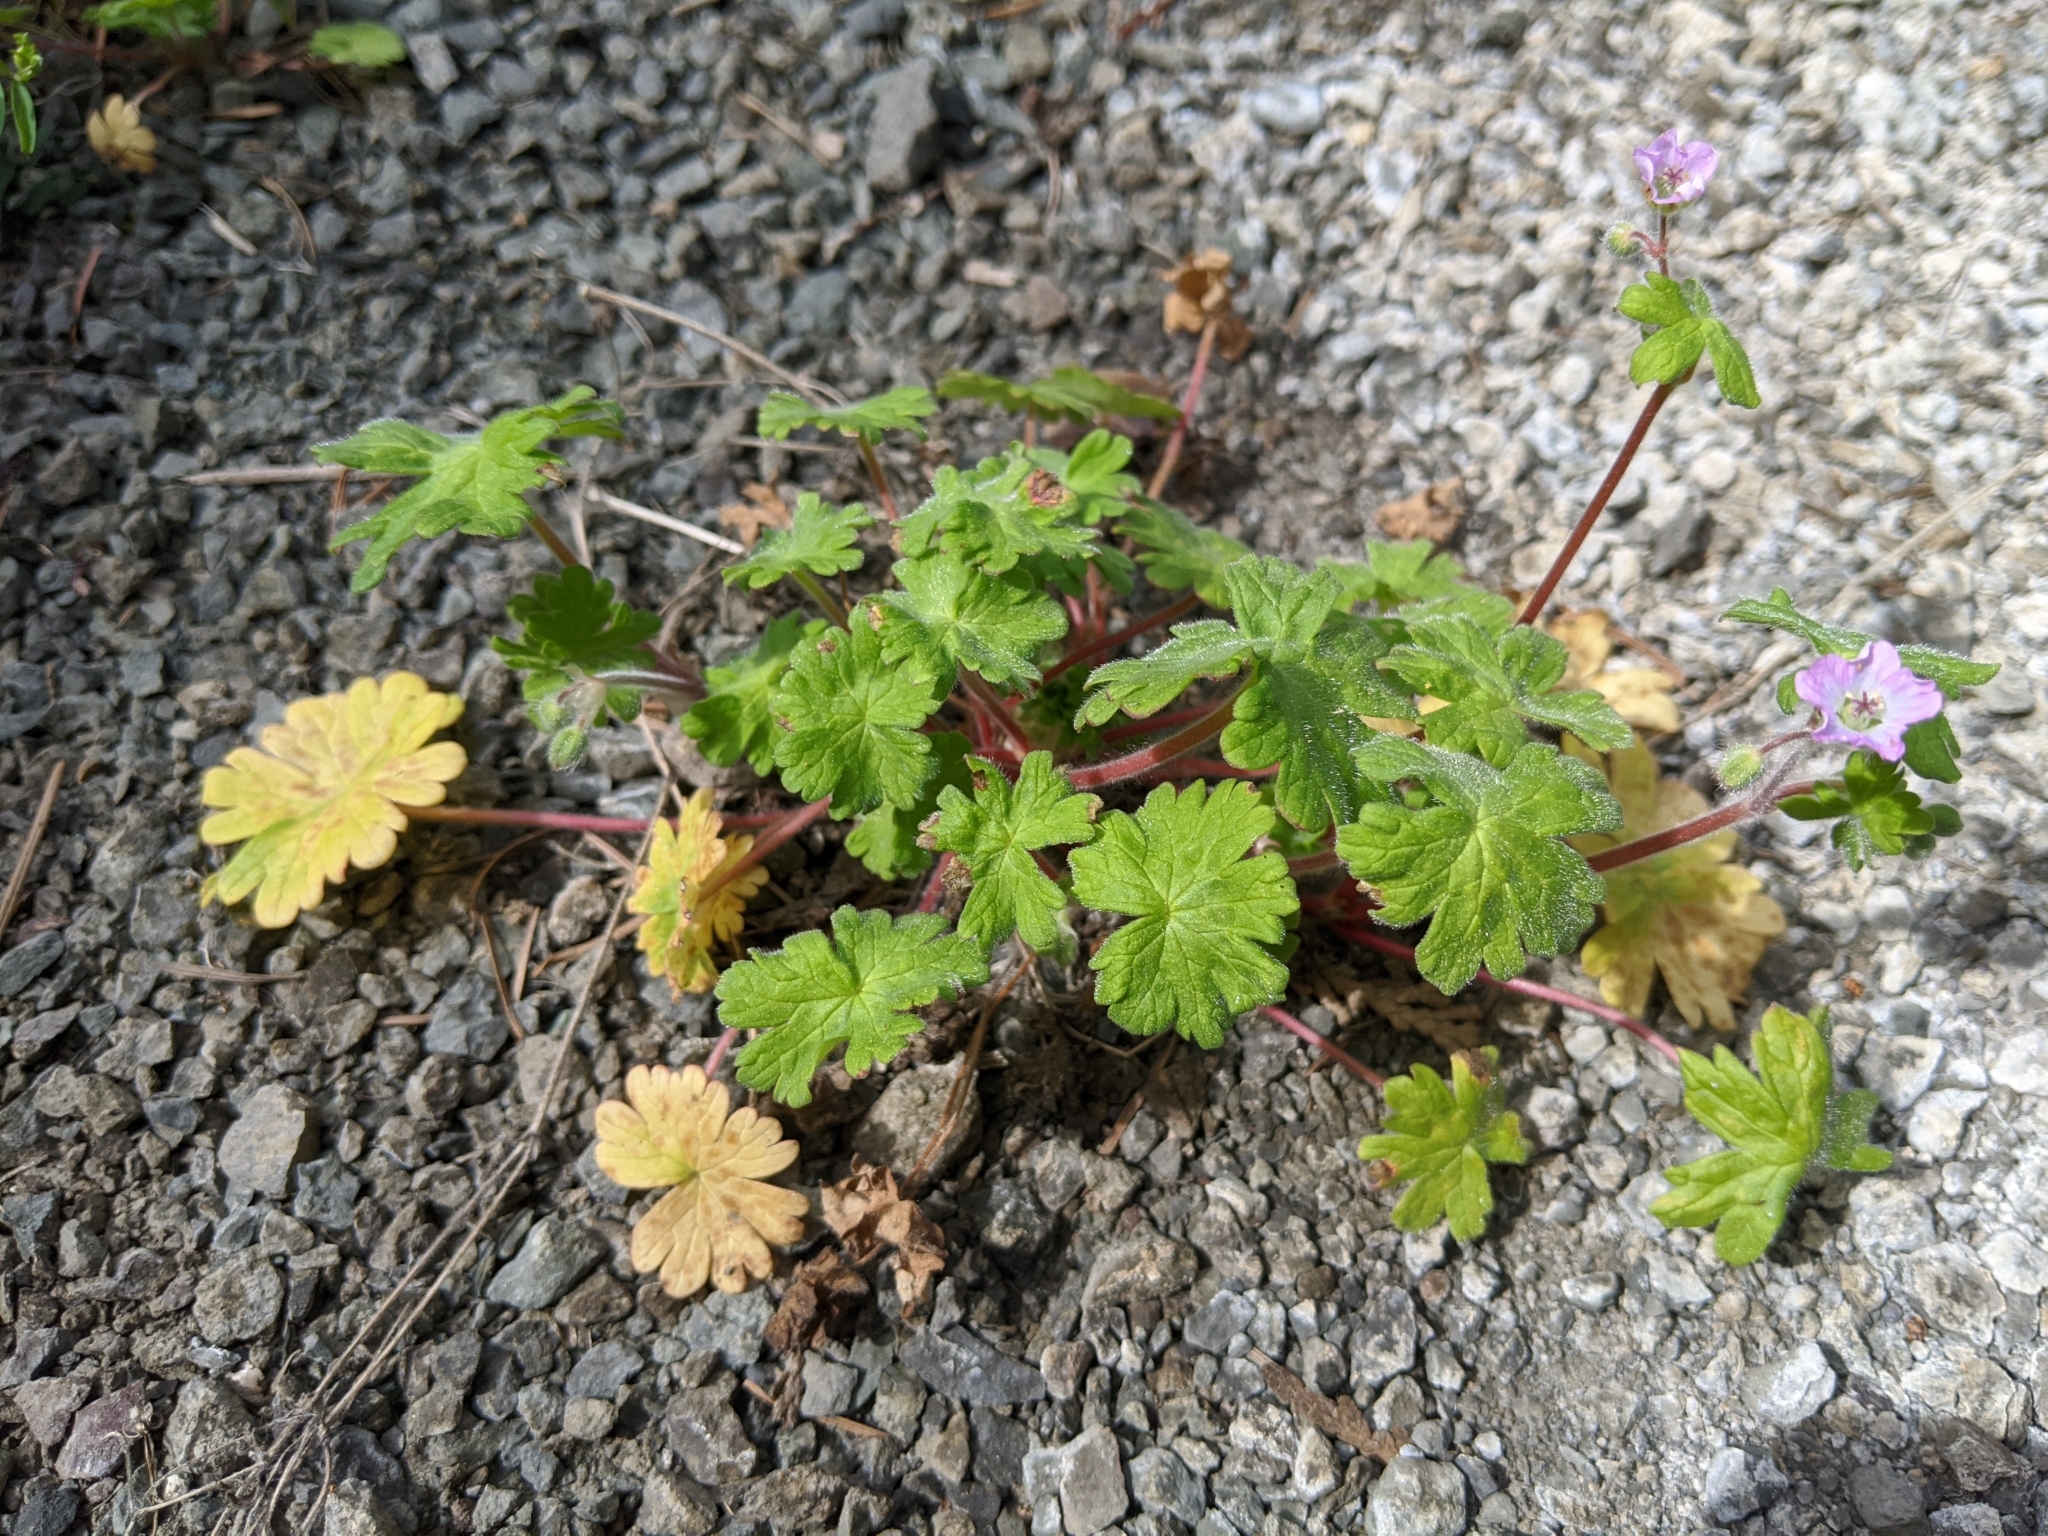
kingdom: Plantae
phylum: Tracheophyta
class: Magnoliopsida
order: Geraniales
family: Geraniaceae
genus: Geranium
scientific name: Geranium molle
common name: Dove's-foot crane's-bill
